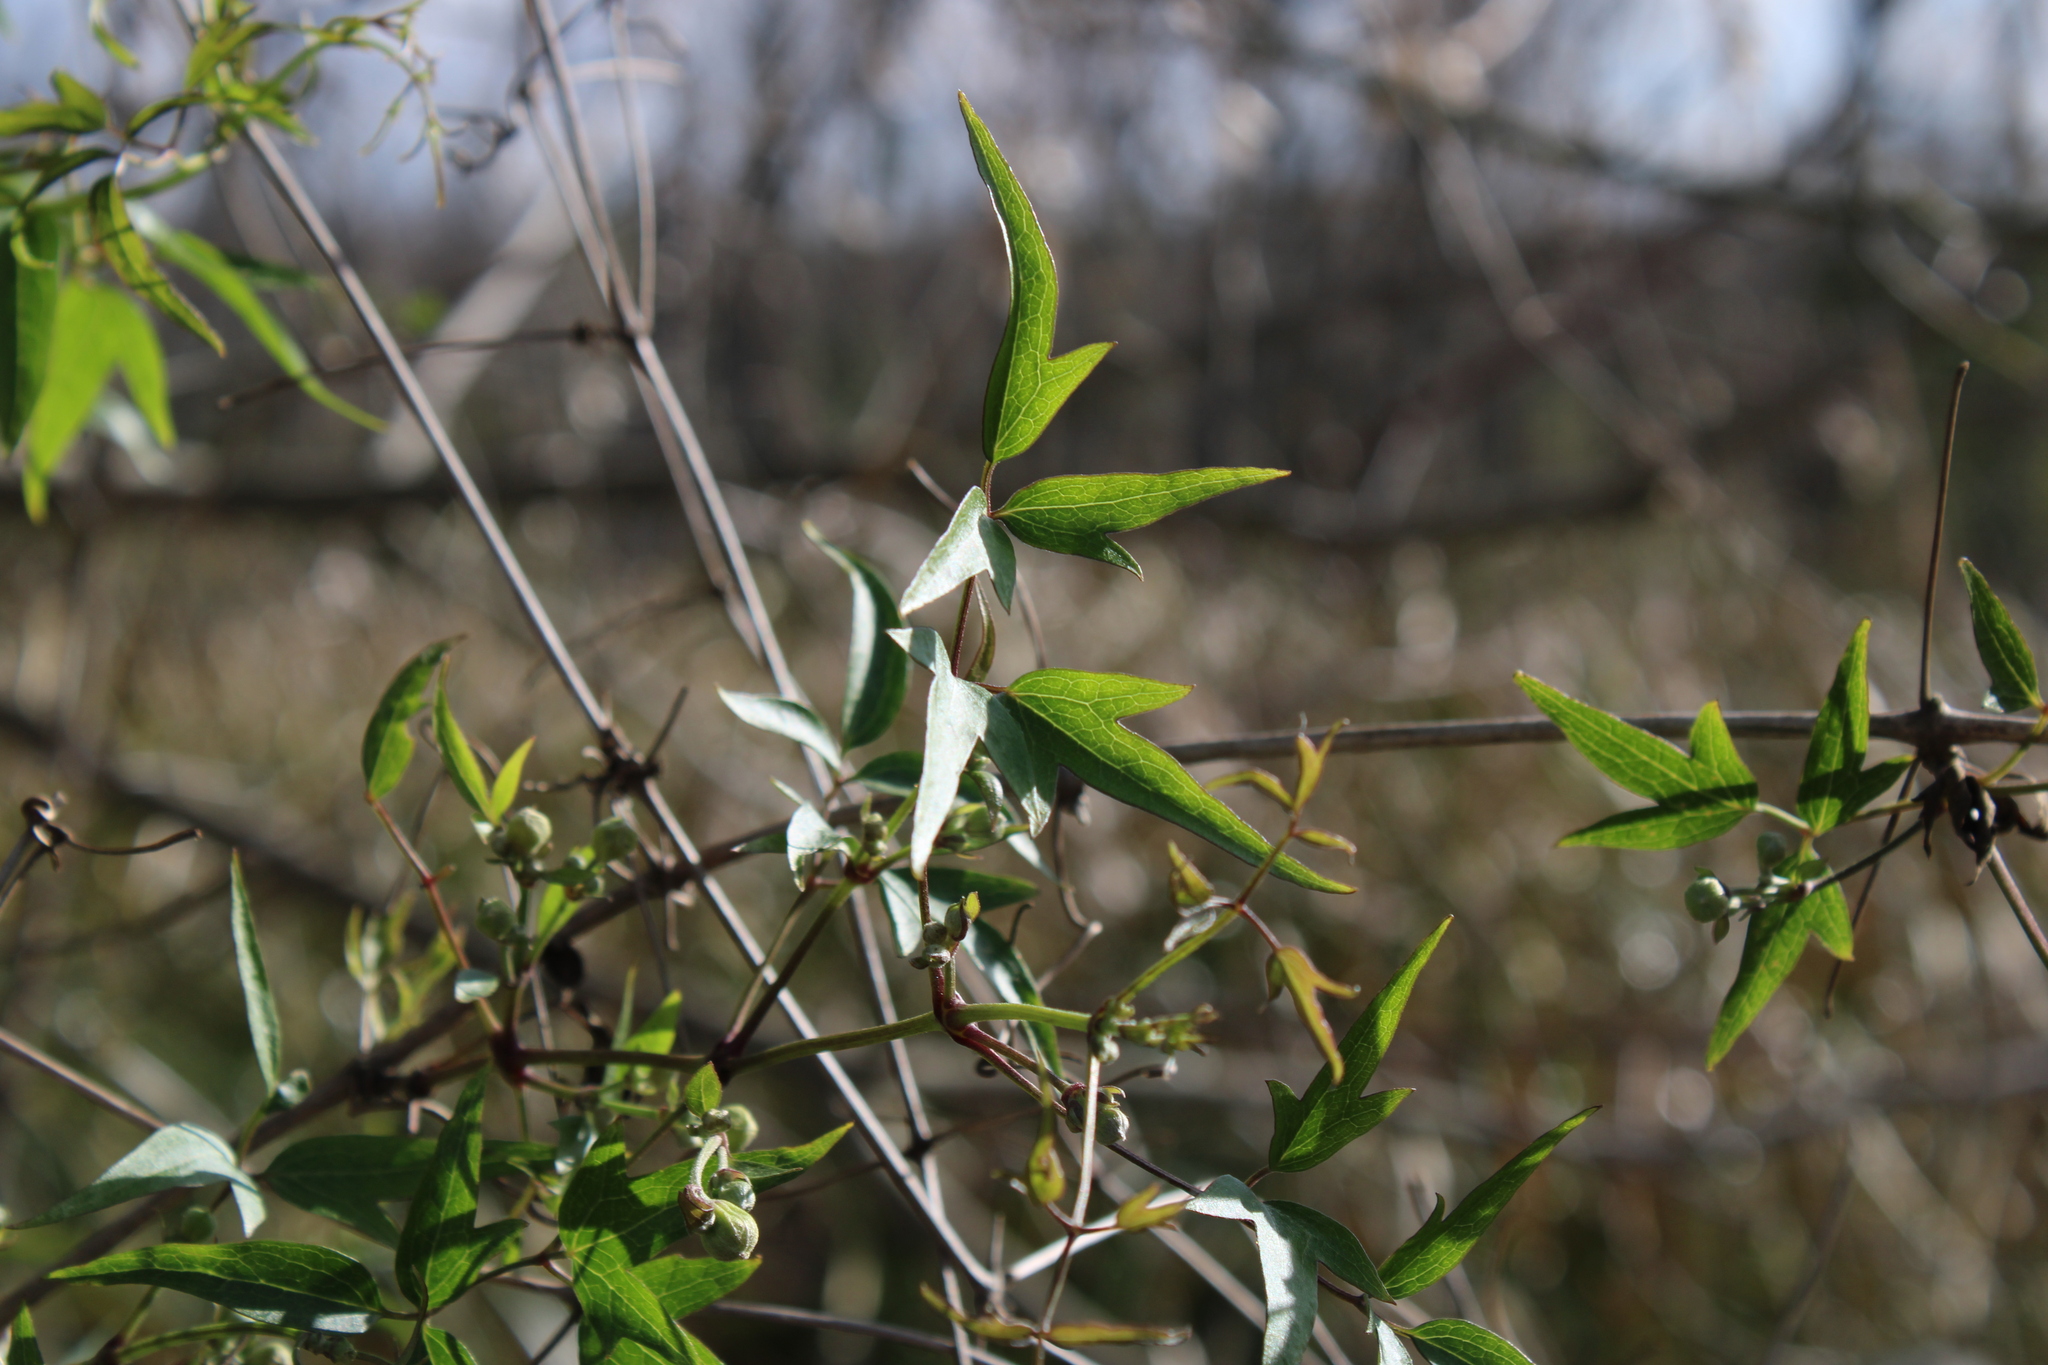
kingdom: Plantae
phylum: Tracheophyta
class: Magnoliopsida
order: Ranunculales
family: Ranunculaceae
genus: Clematis
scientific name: Clematis montevidensis
